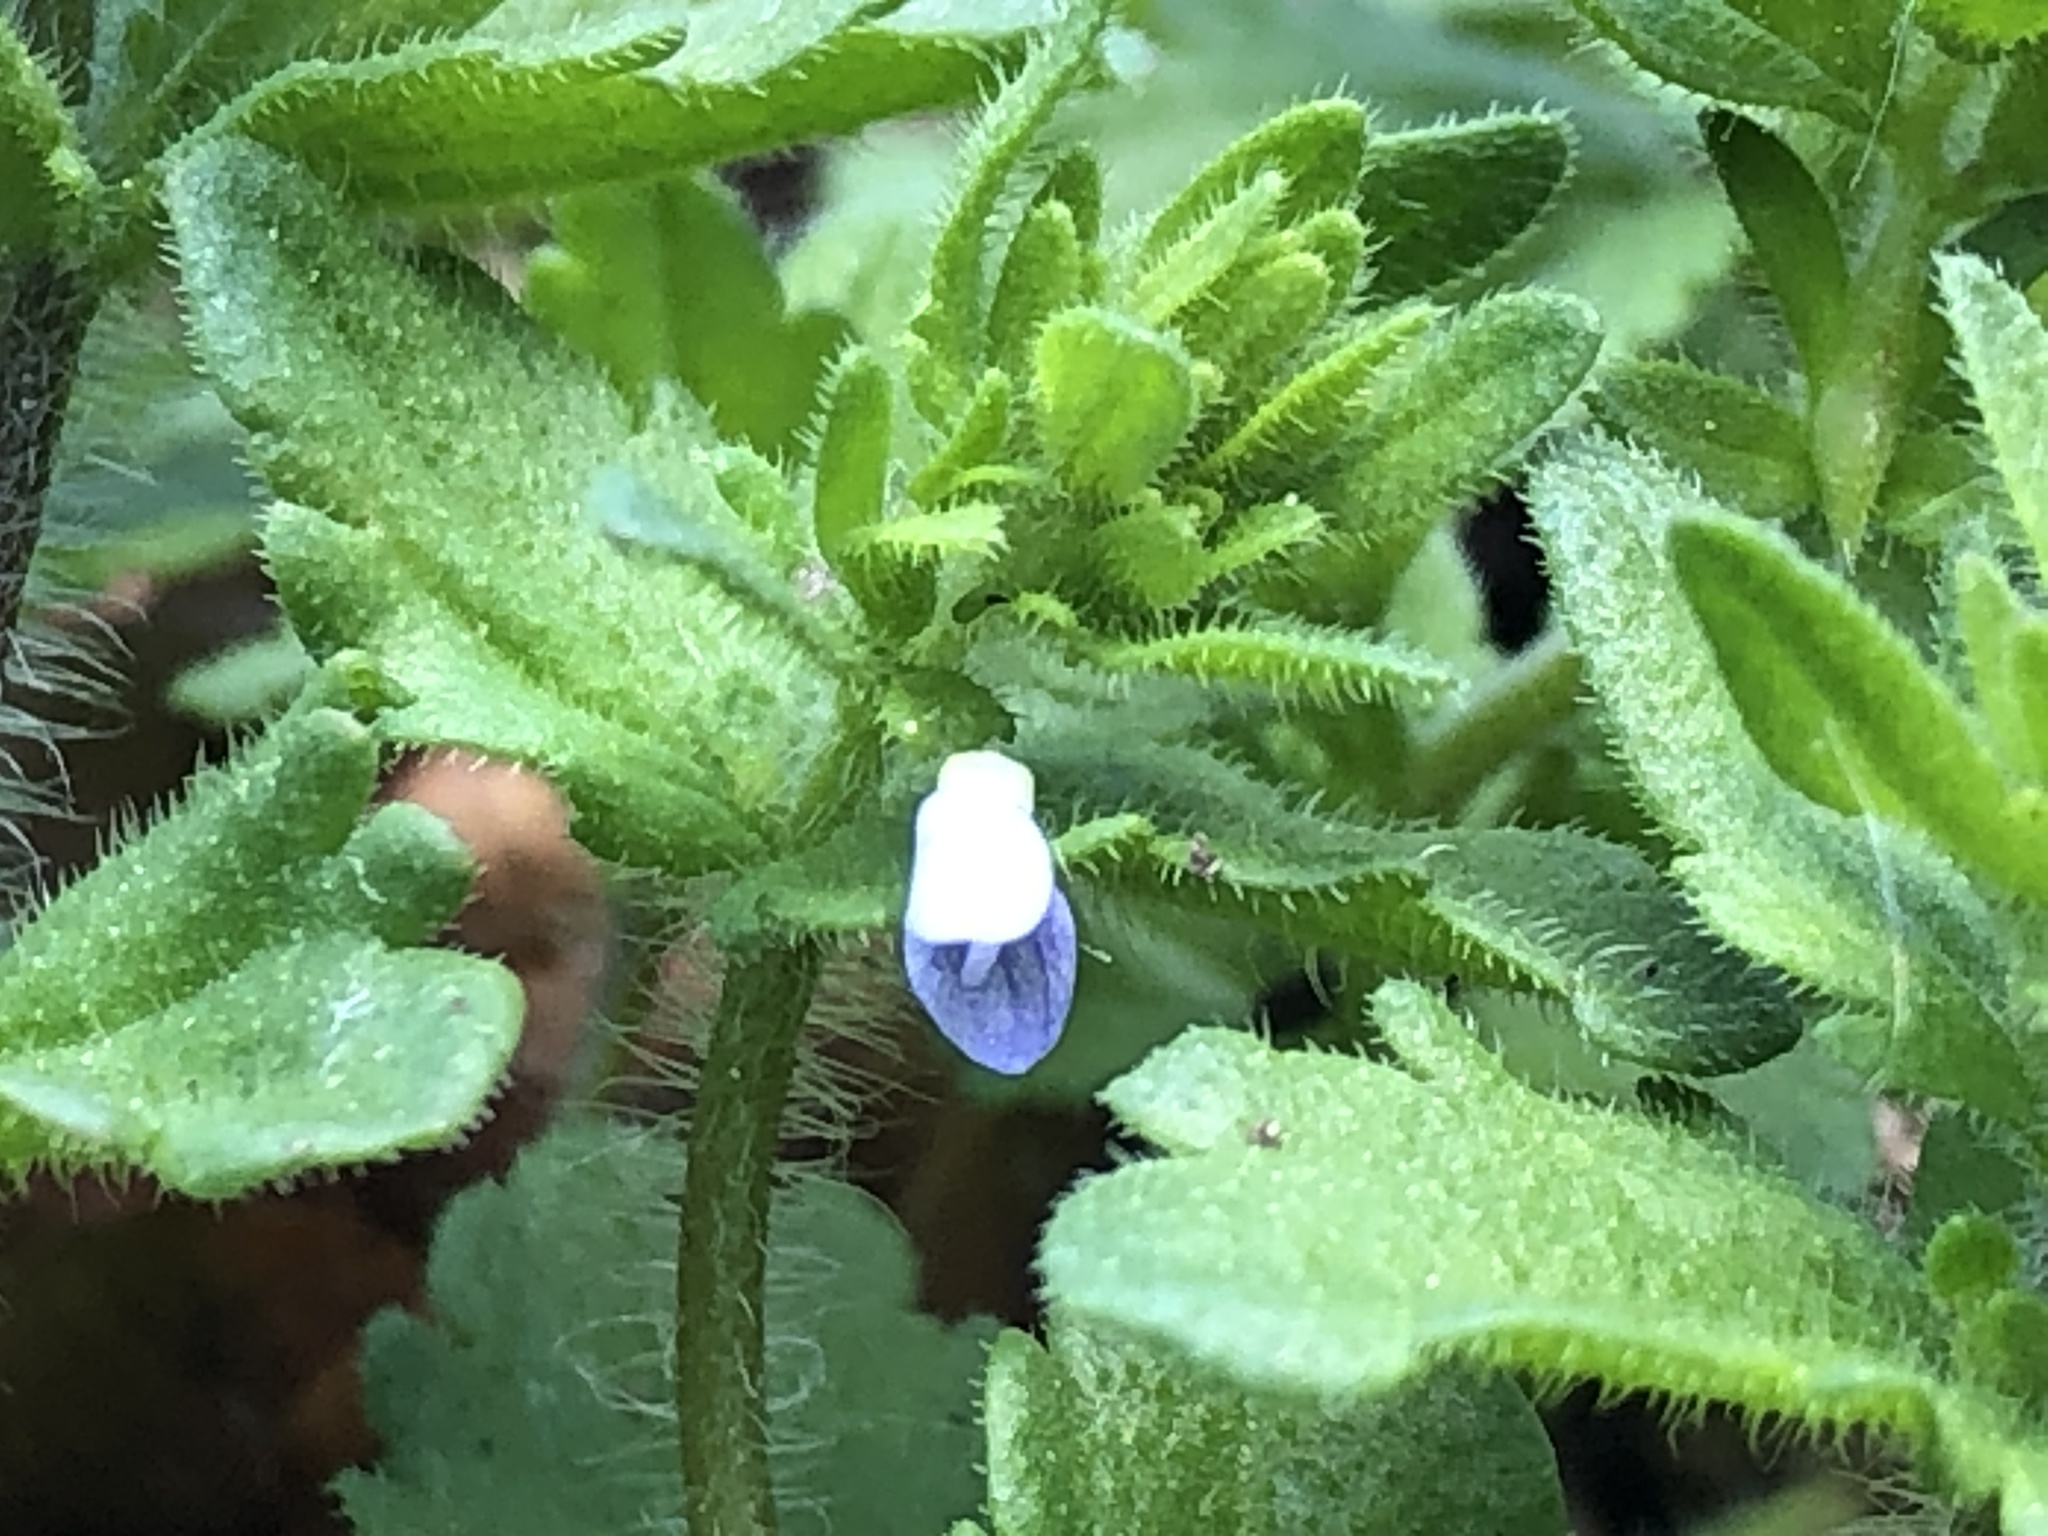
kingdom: Plantae
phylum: Tracheophyta
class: Magnoliopsida
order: Lamiales
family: Plantaginaceae
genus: Veronica
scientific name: Veronica arvensis
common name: Corn speedwell
